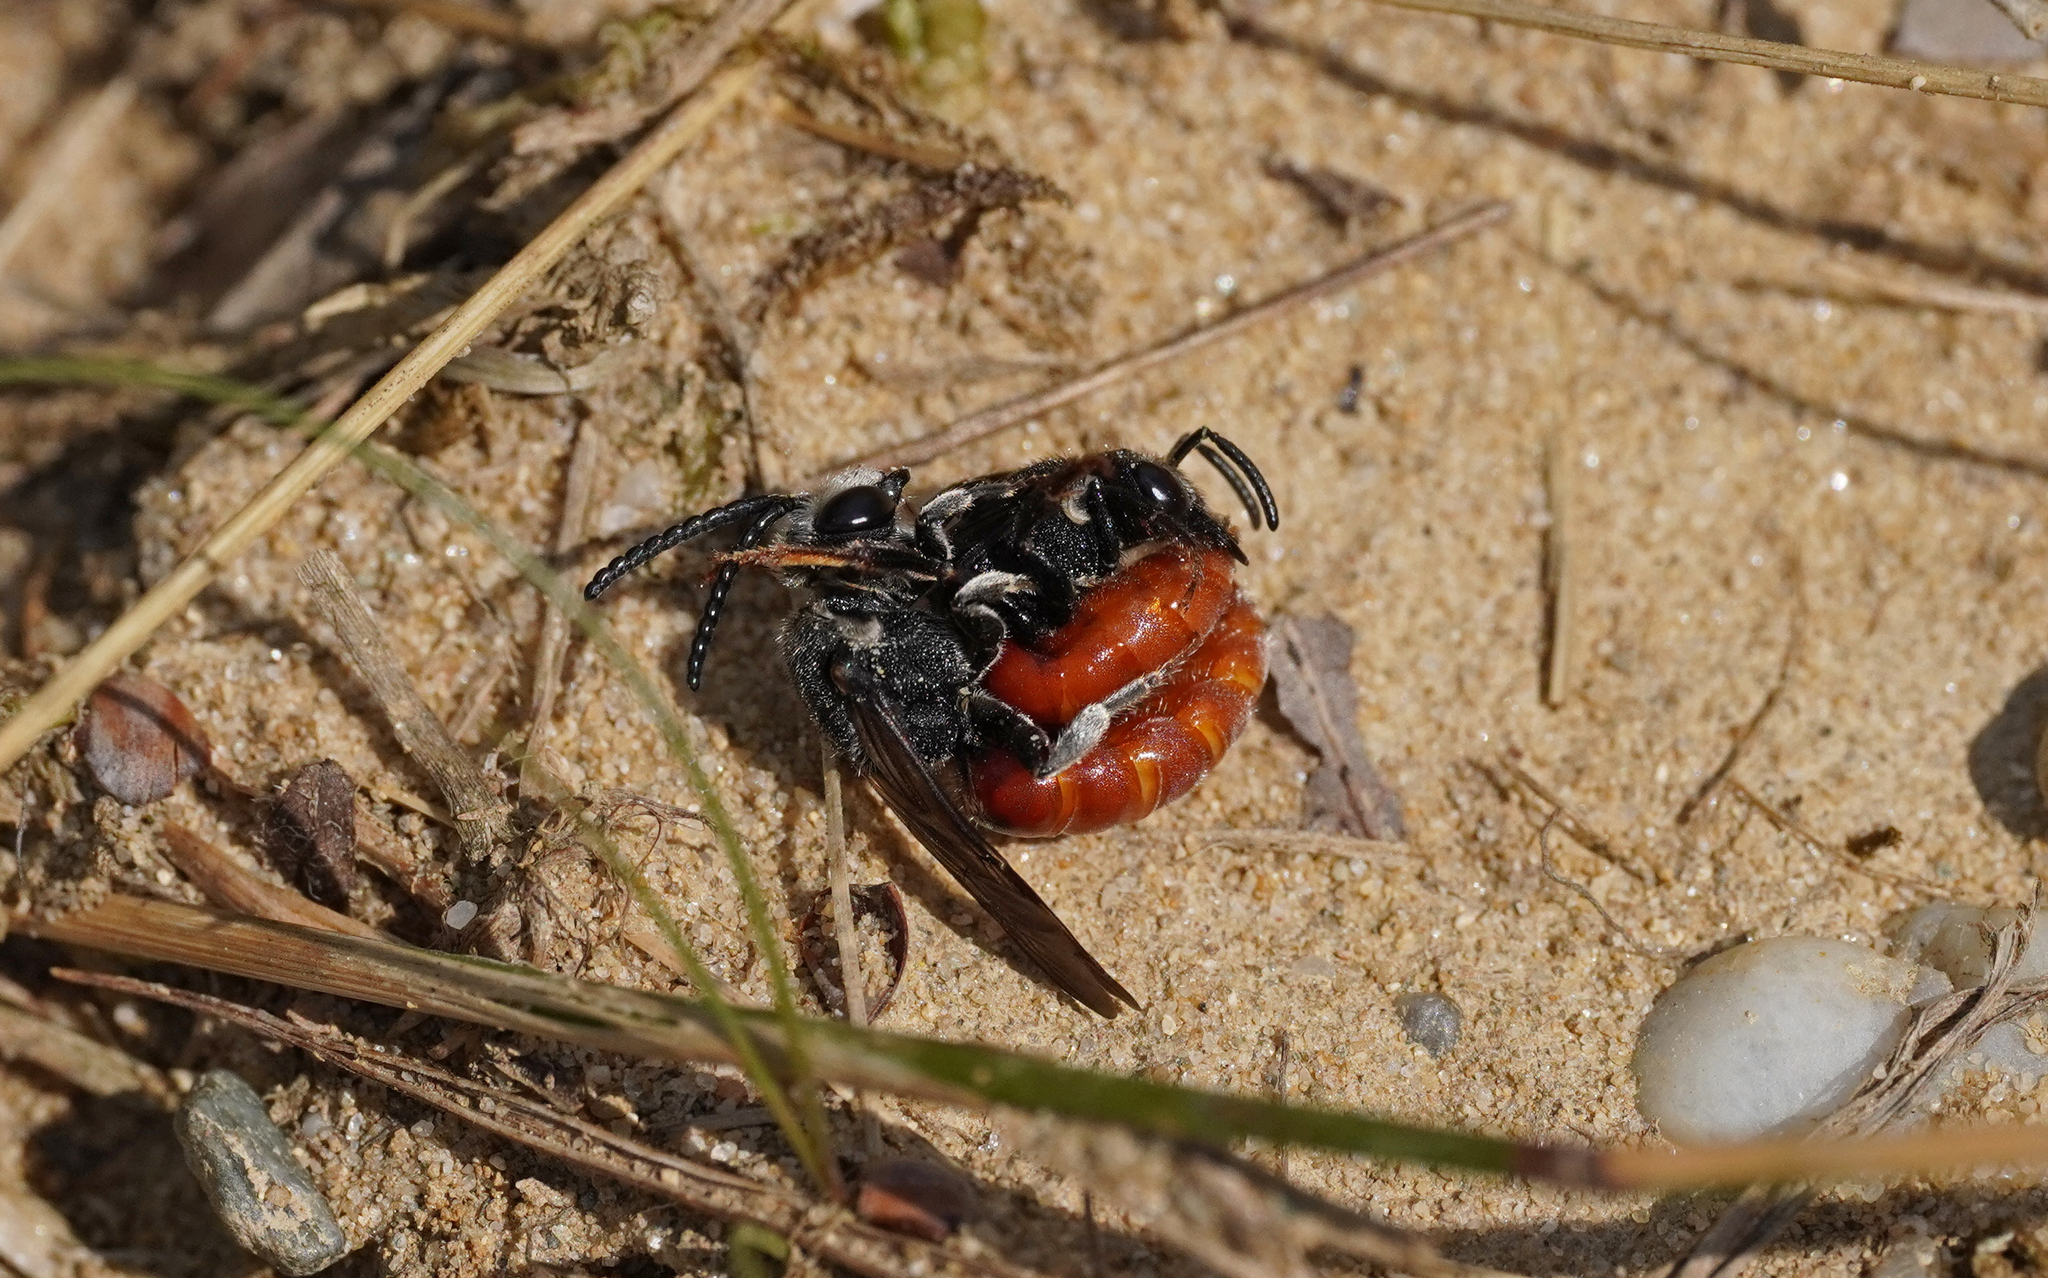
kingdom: Animalia
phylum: Arthropoda
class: Insecta
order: Hymenoptera
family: Halictidae
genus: Sphecodes
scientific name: Sphecodes albilabris
